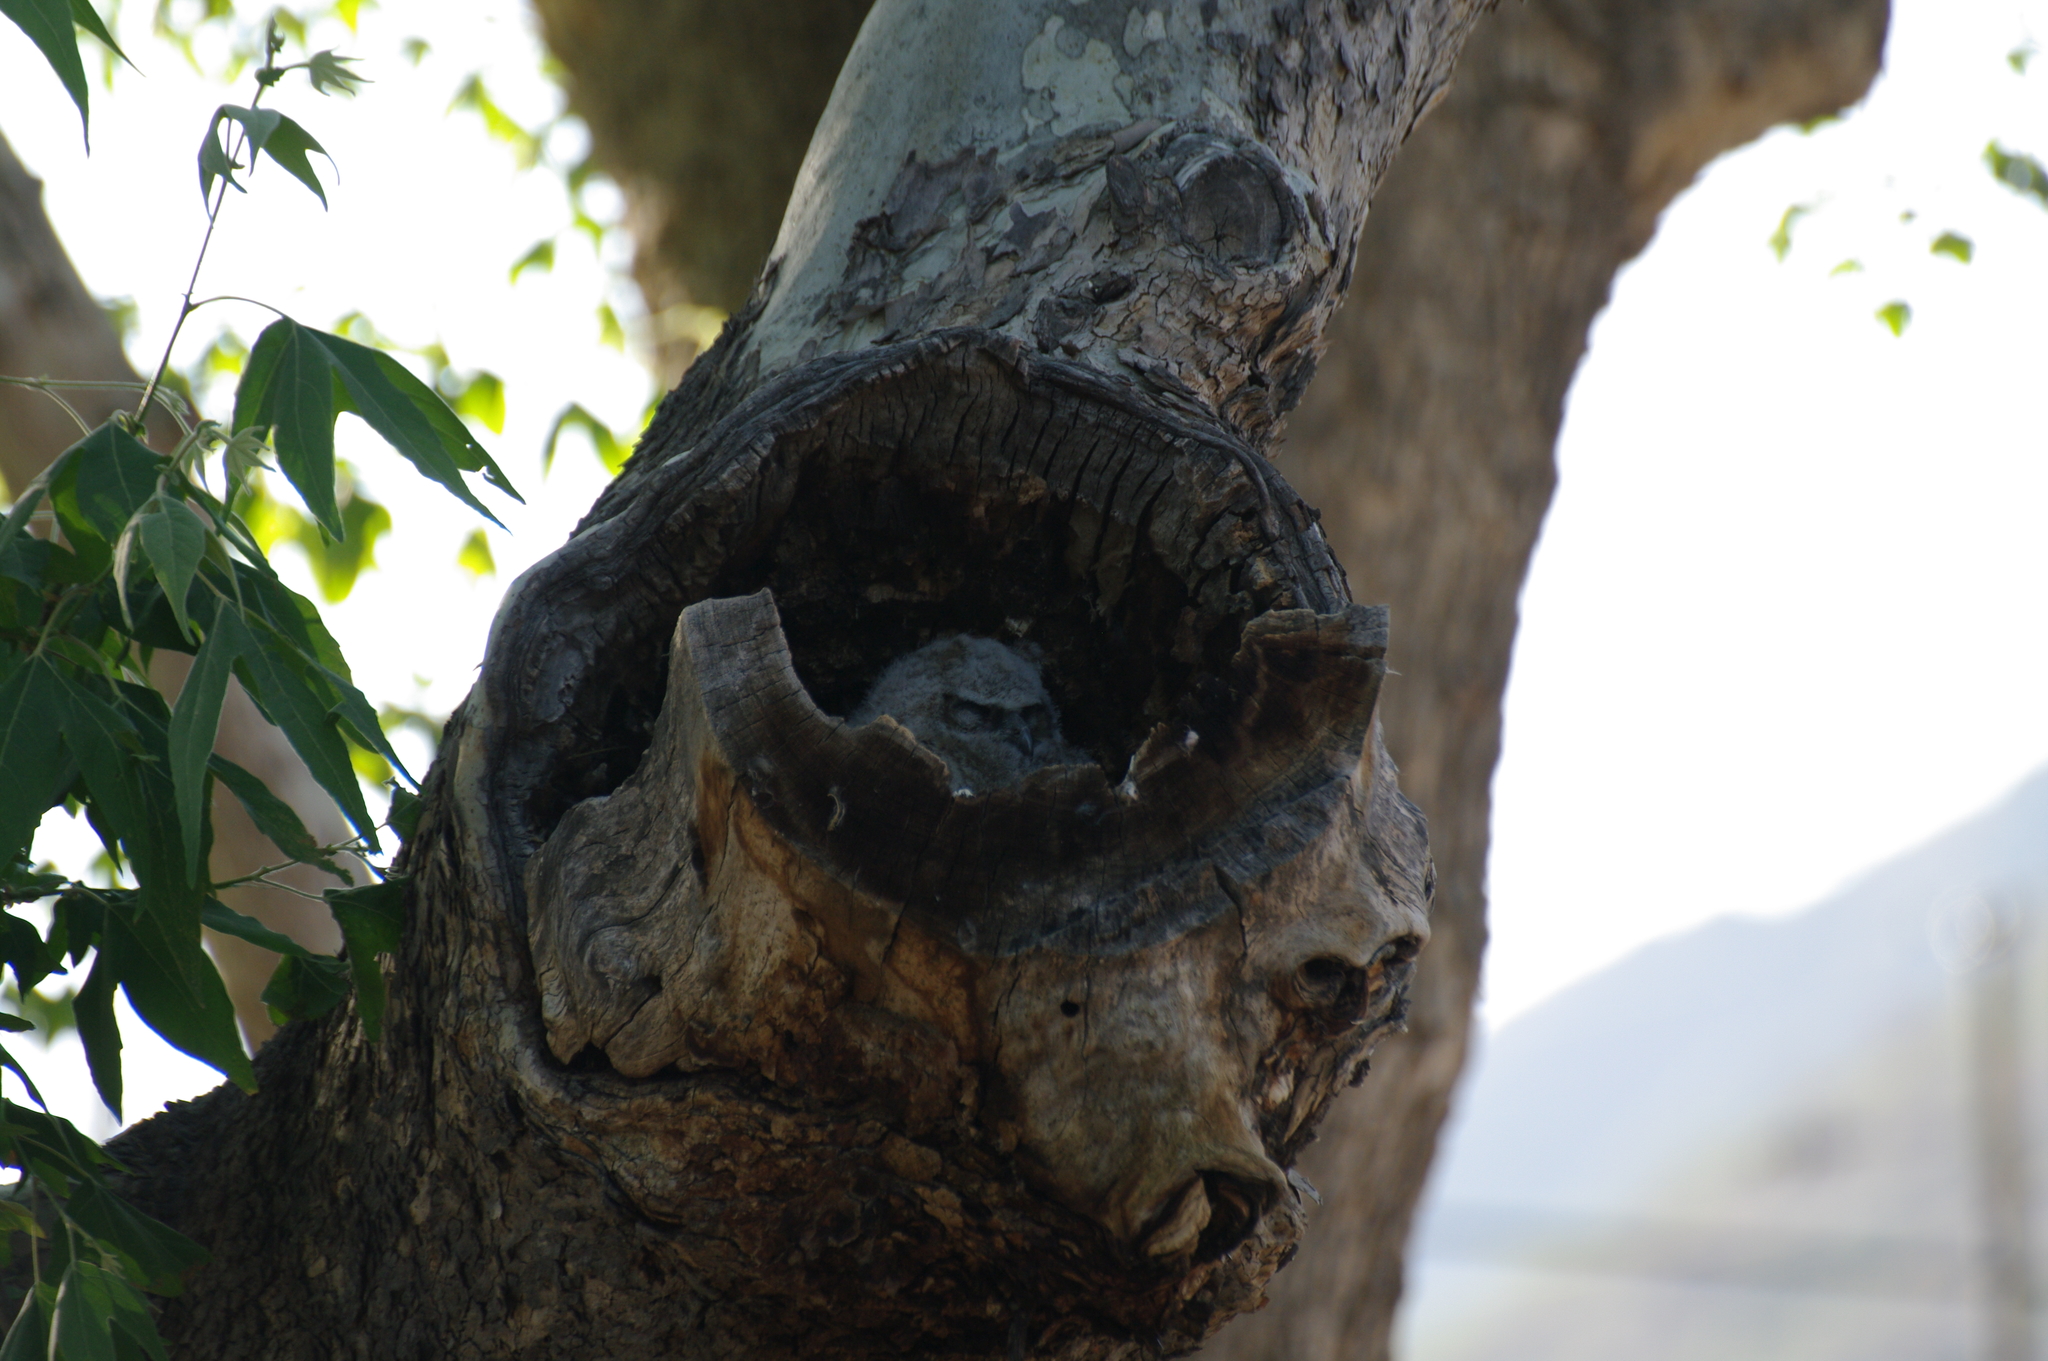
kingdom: Animalia
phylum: Chordata
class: Aves
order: Strigiformes
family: Strigidae
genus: Bubo
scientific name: Bubo virginianus
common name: Great horned owl
